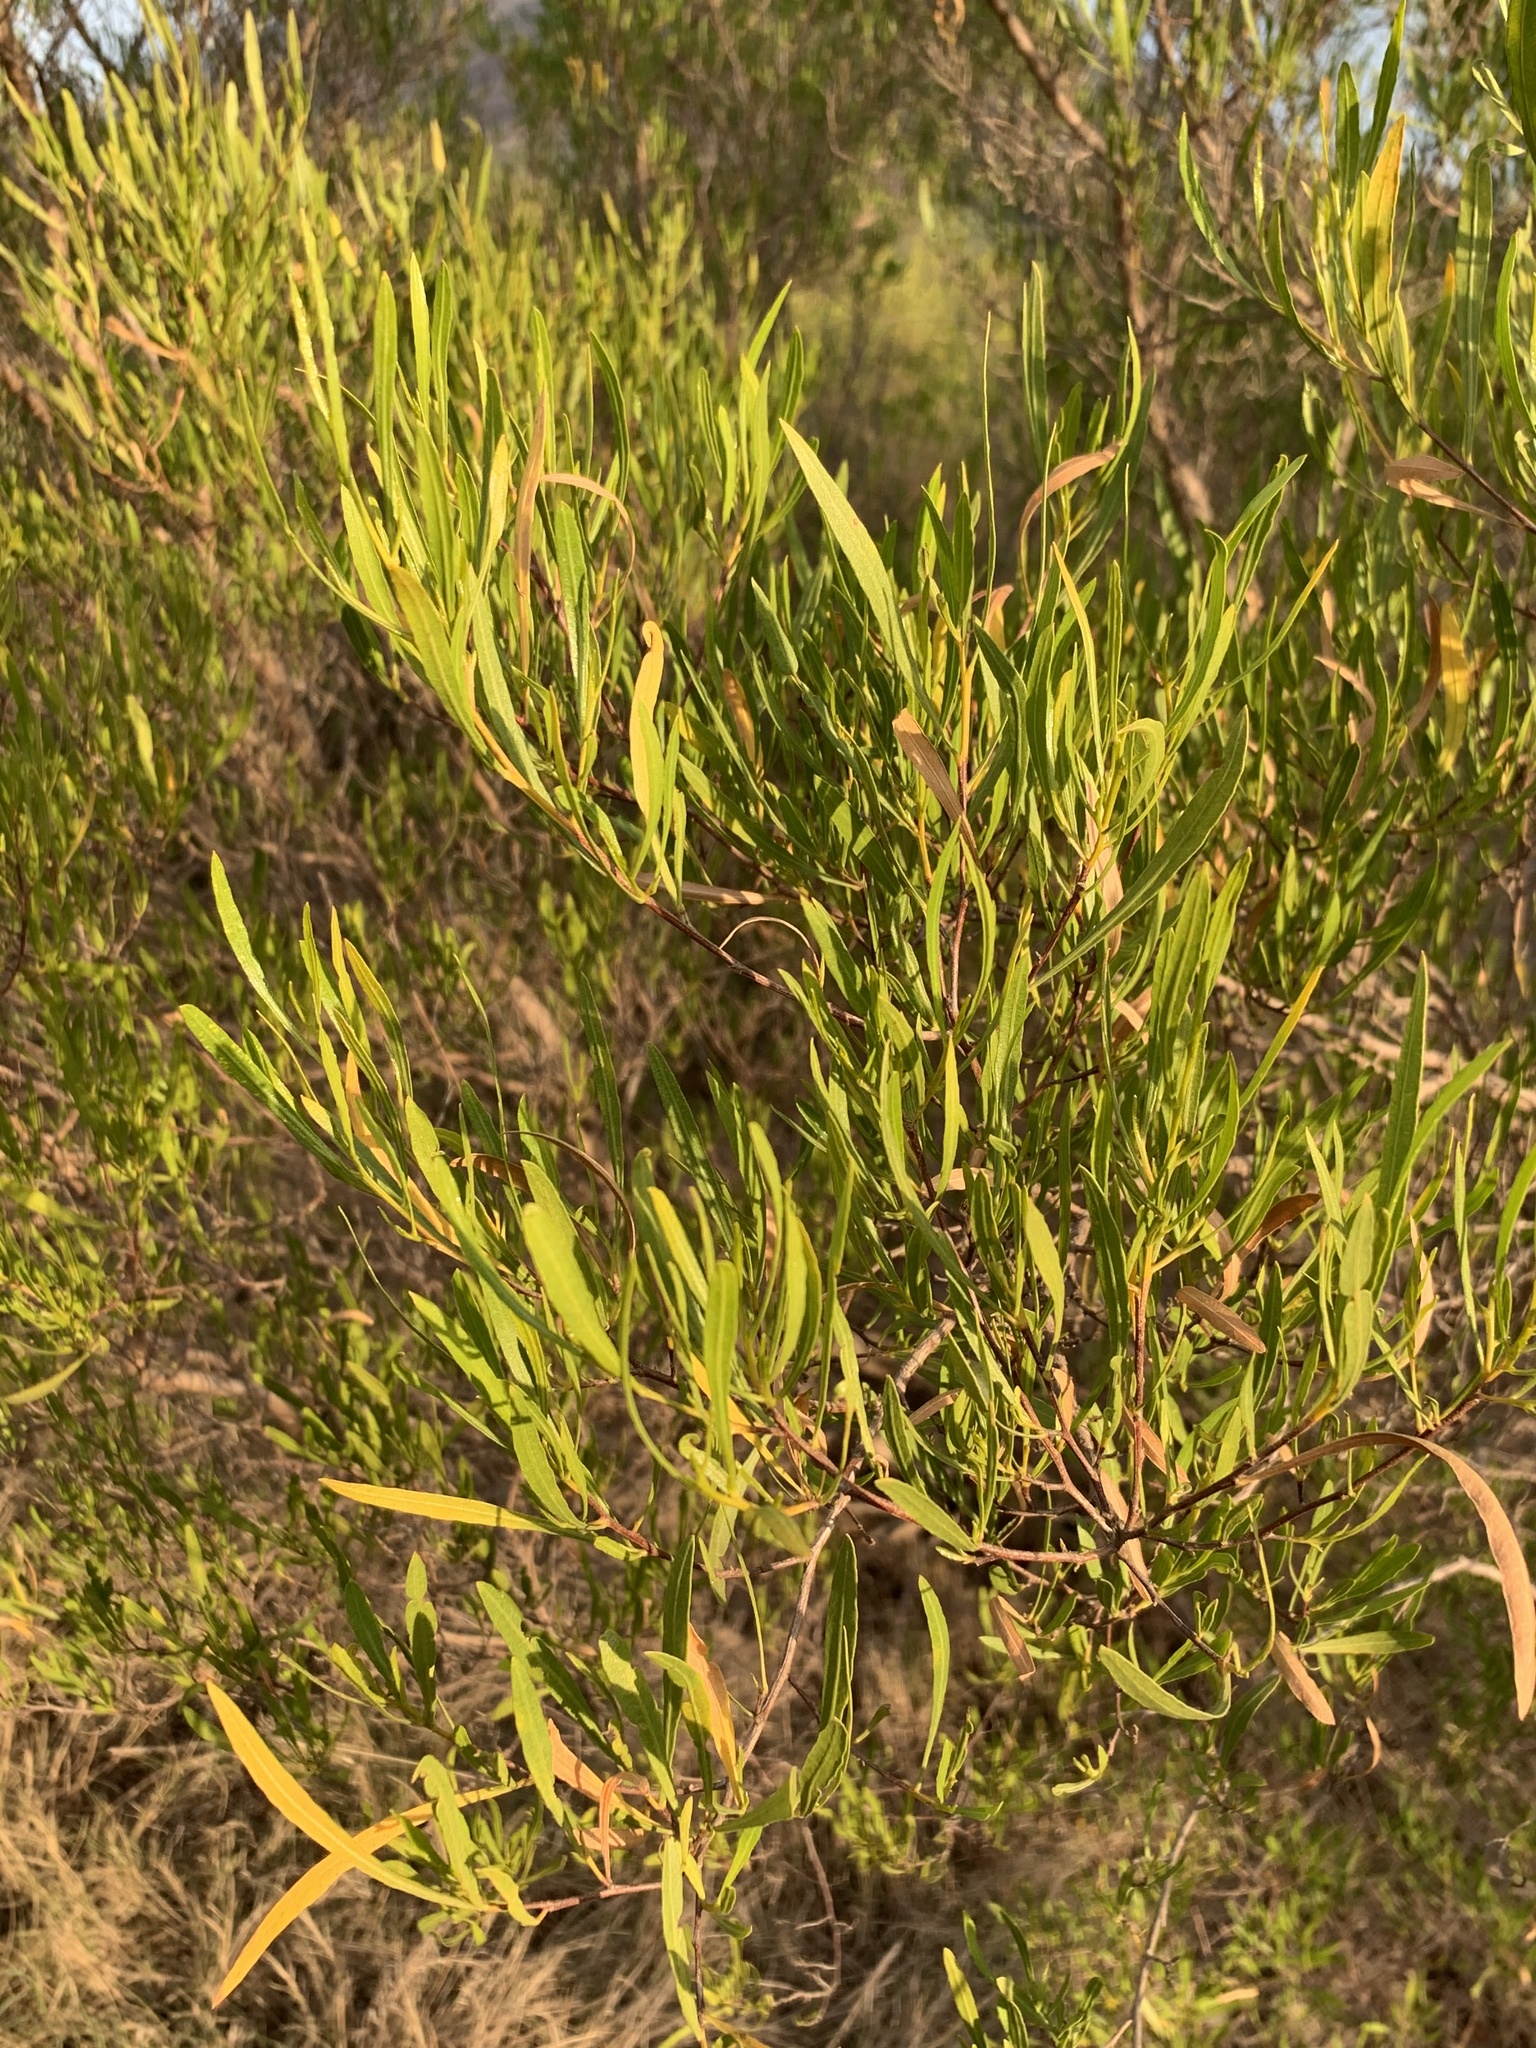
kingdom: Plantae
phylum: Tracheophyta
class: Magnoliopsida
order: Sapindales
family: Sapindaceae
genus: Dodonaea
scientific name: Dodonaea viscosa
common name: Hopbush
